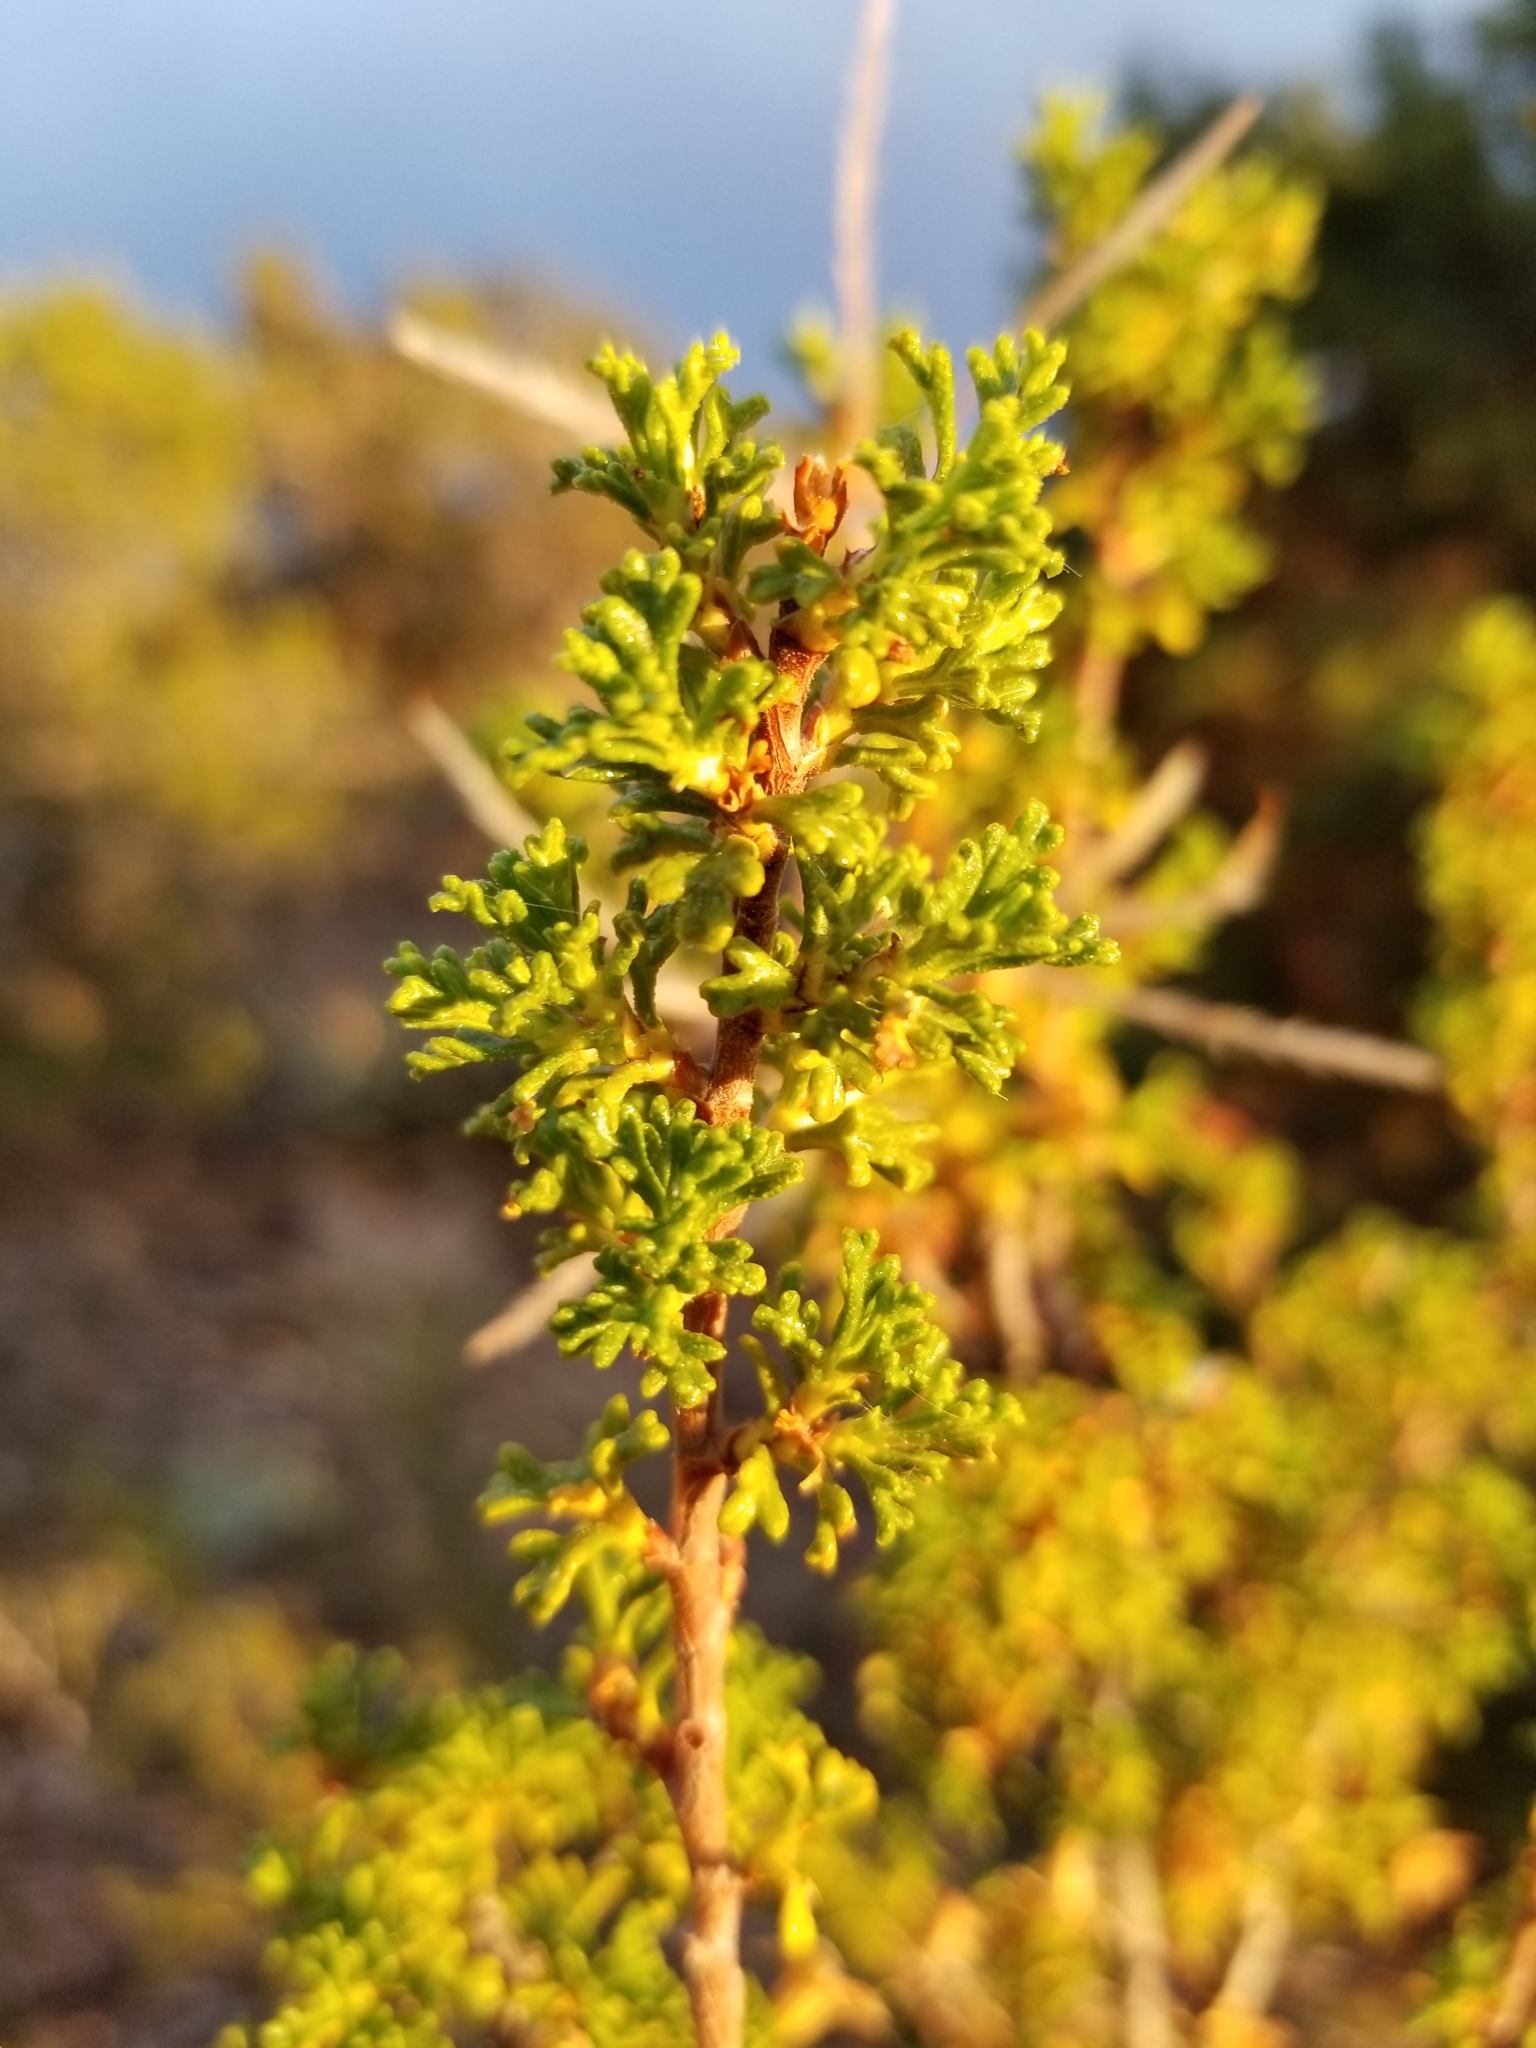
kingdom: Plantae
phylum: Tracheophyta
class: Magnoliopsida
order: Rosales
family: Rosaceae
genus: Purshia
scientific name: Purshia stansburiana
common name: Stansbury's cliffrose
